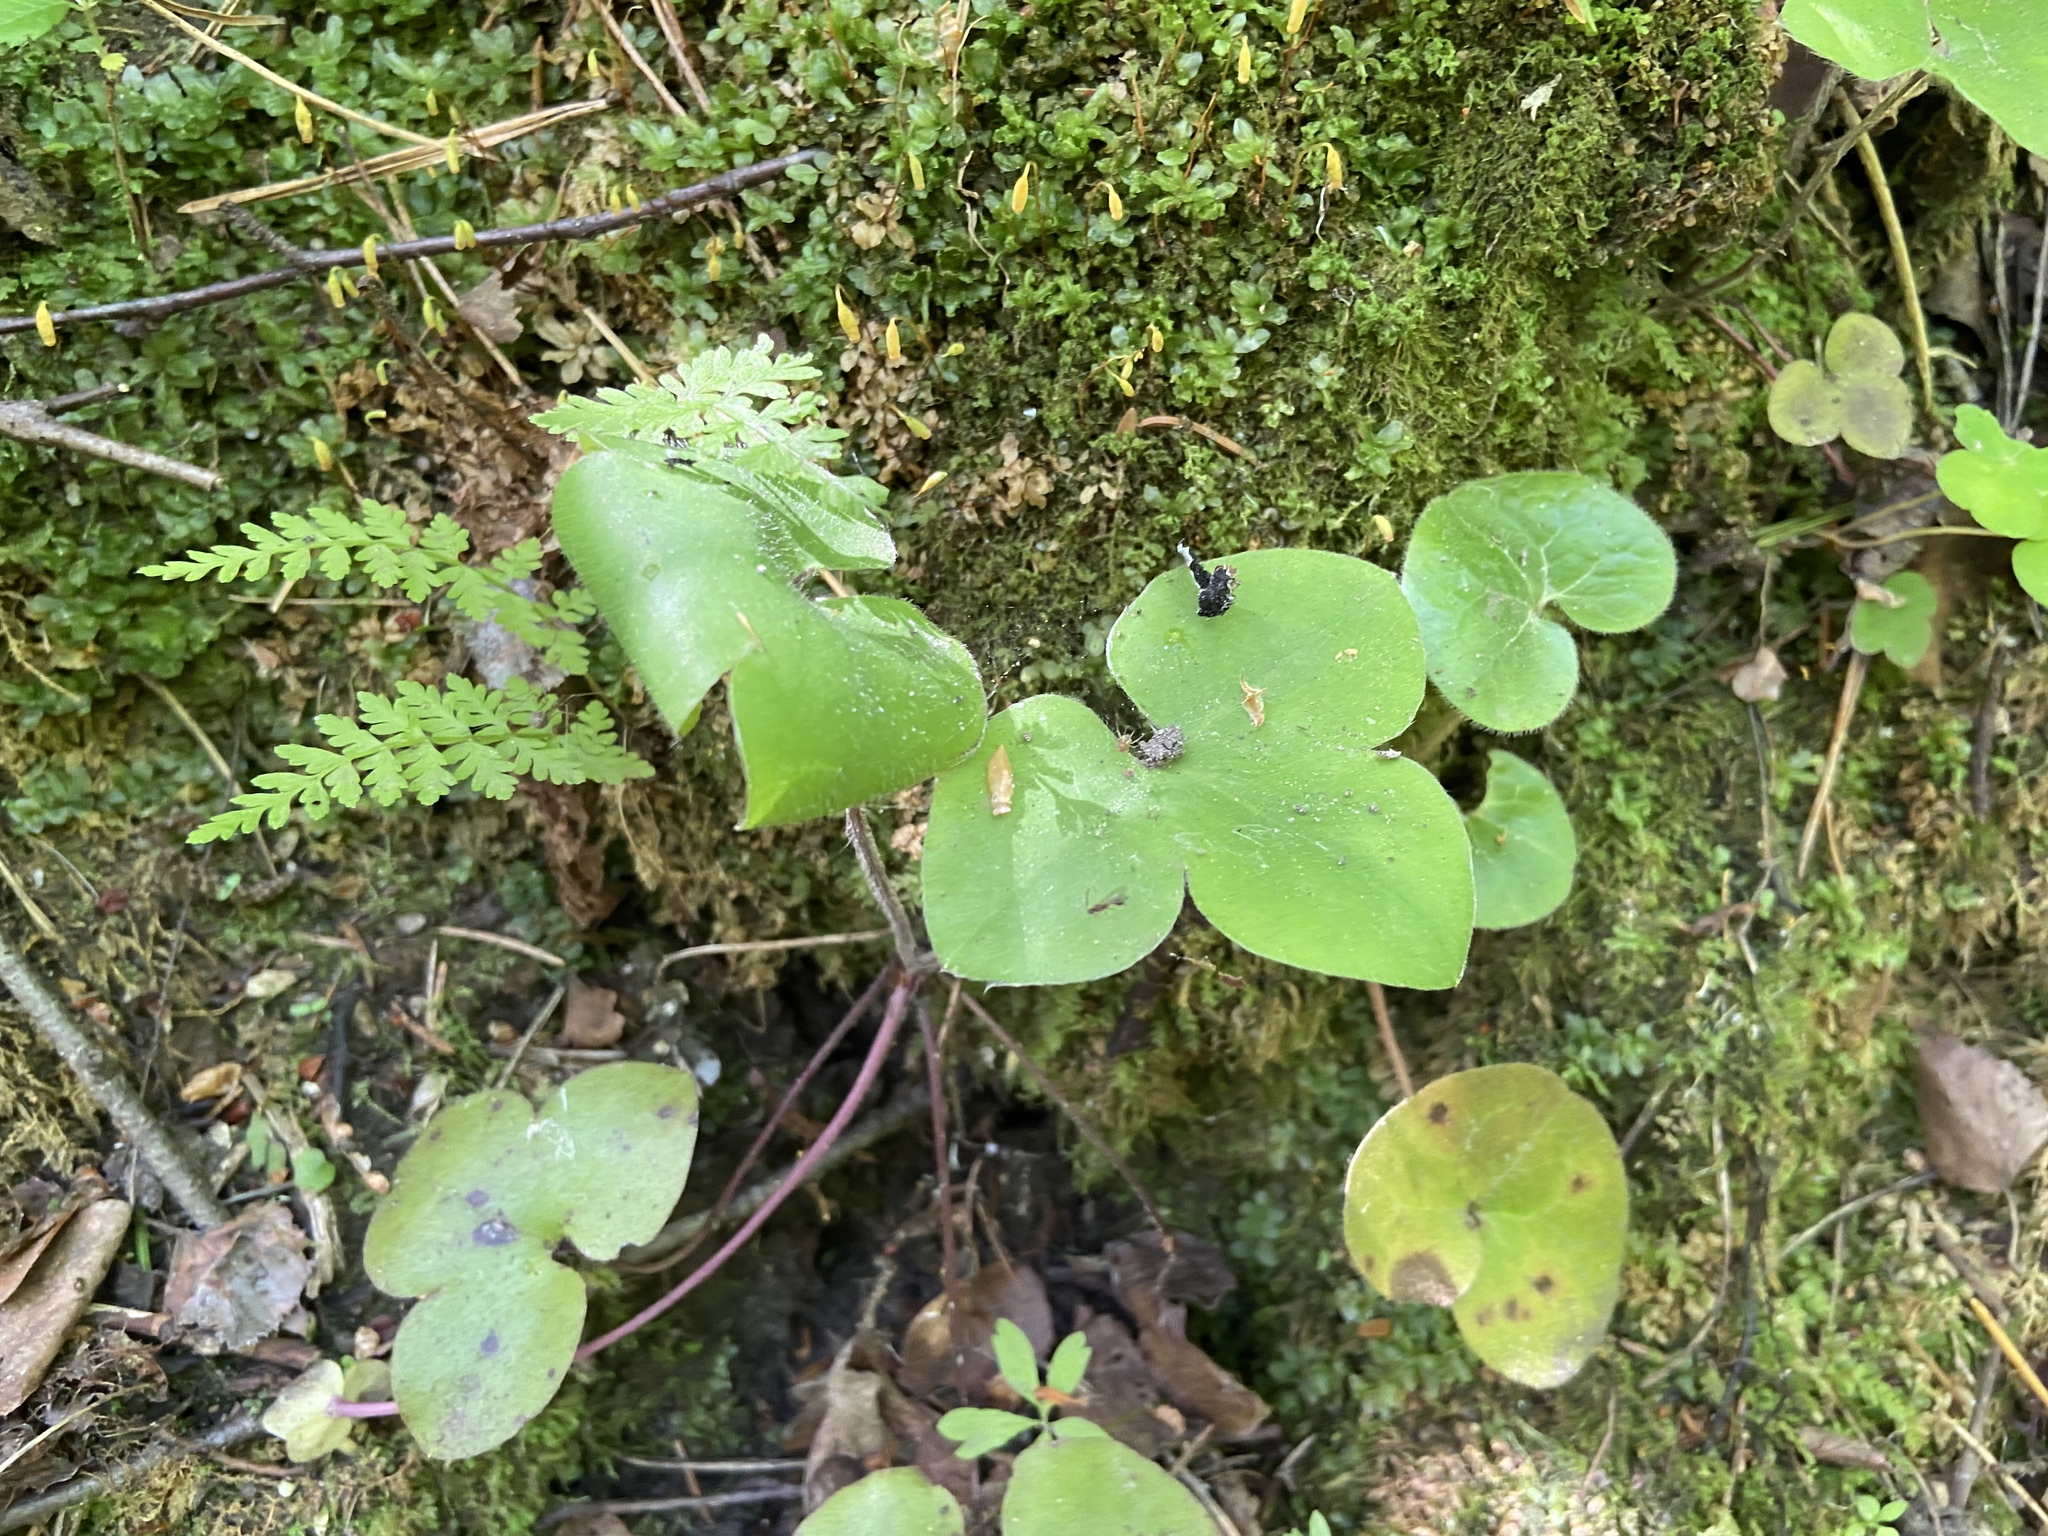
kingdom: Plantae
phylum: Tracheophyta
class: Magnoliopsida
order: Ranunculales
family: Ranunculaceae
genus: Hepatica
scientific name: Hepatica nobilis
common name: Liverleaf
